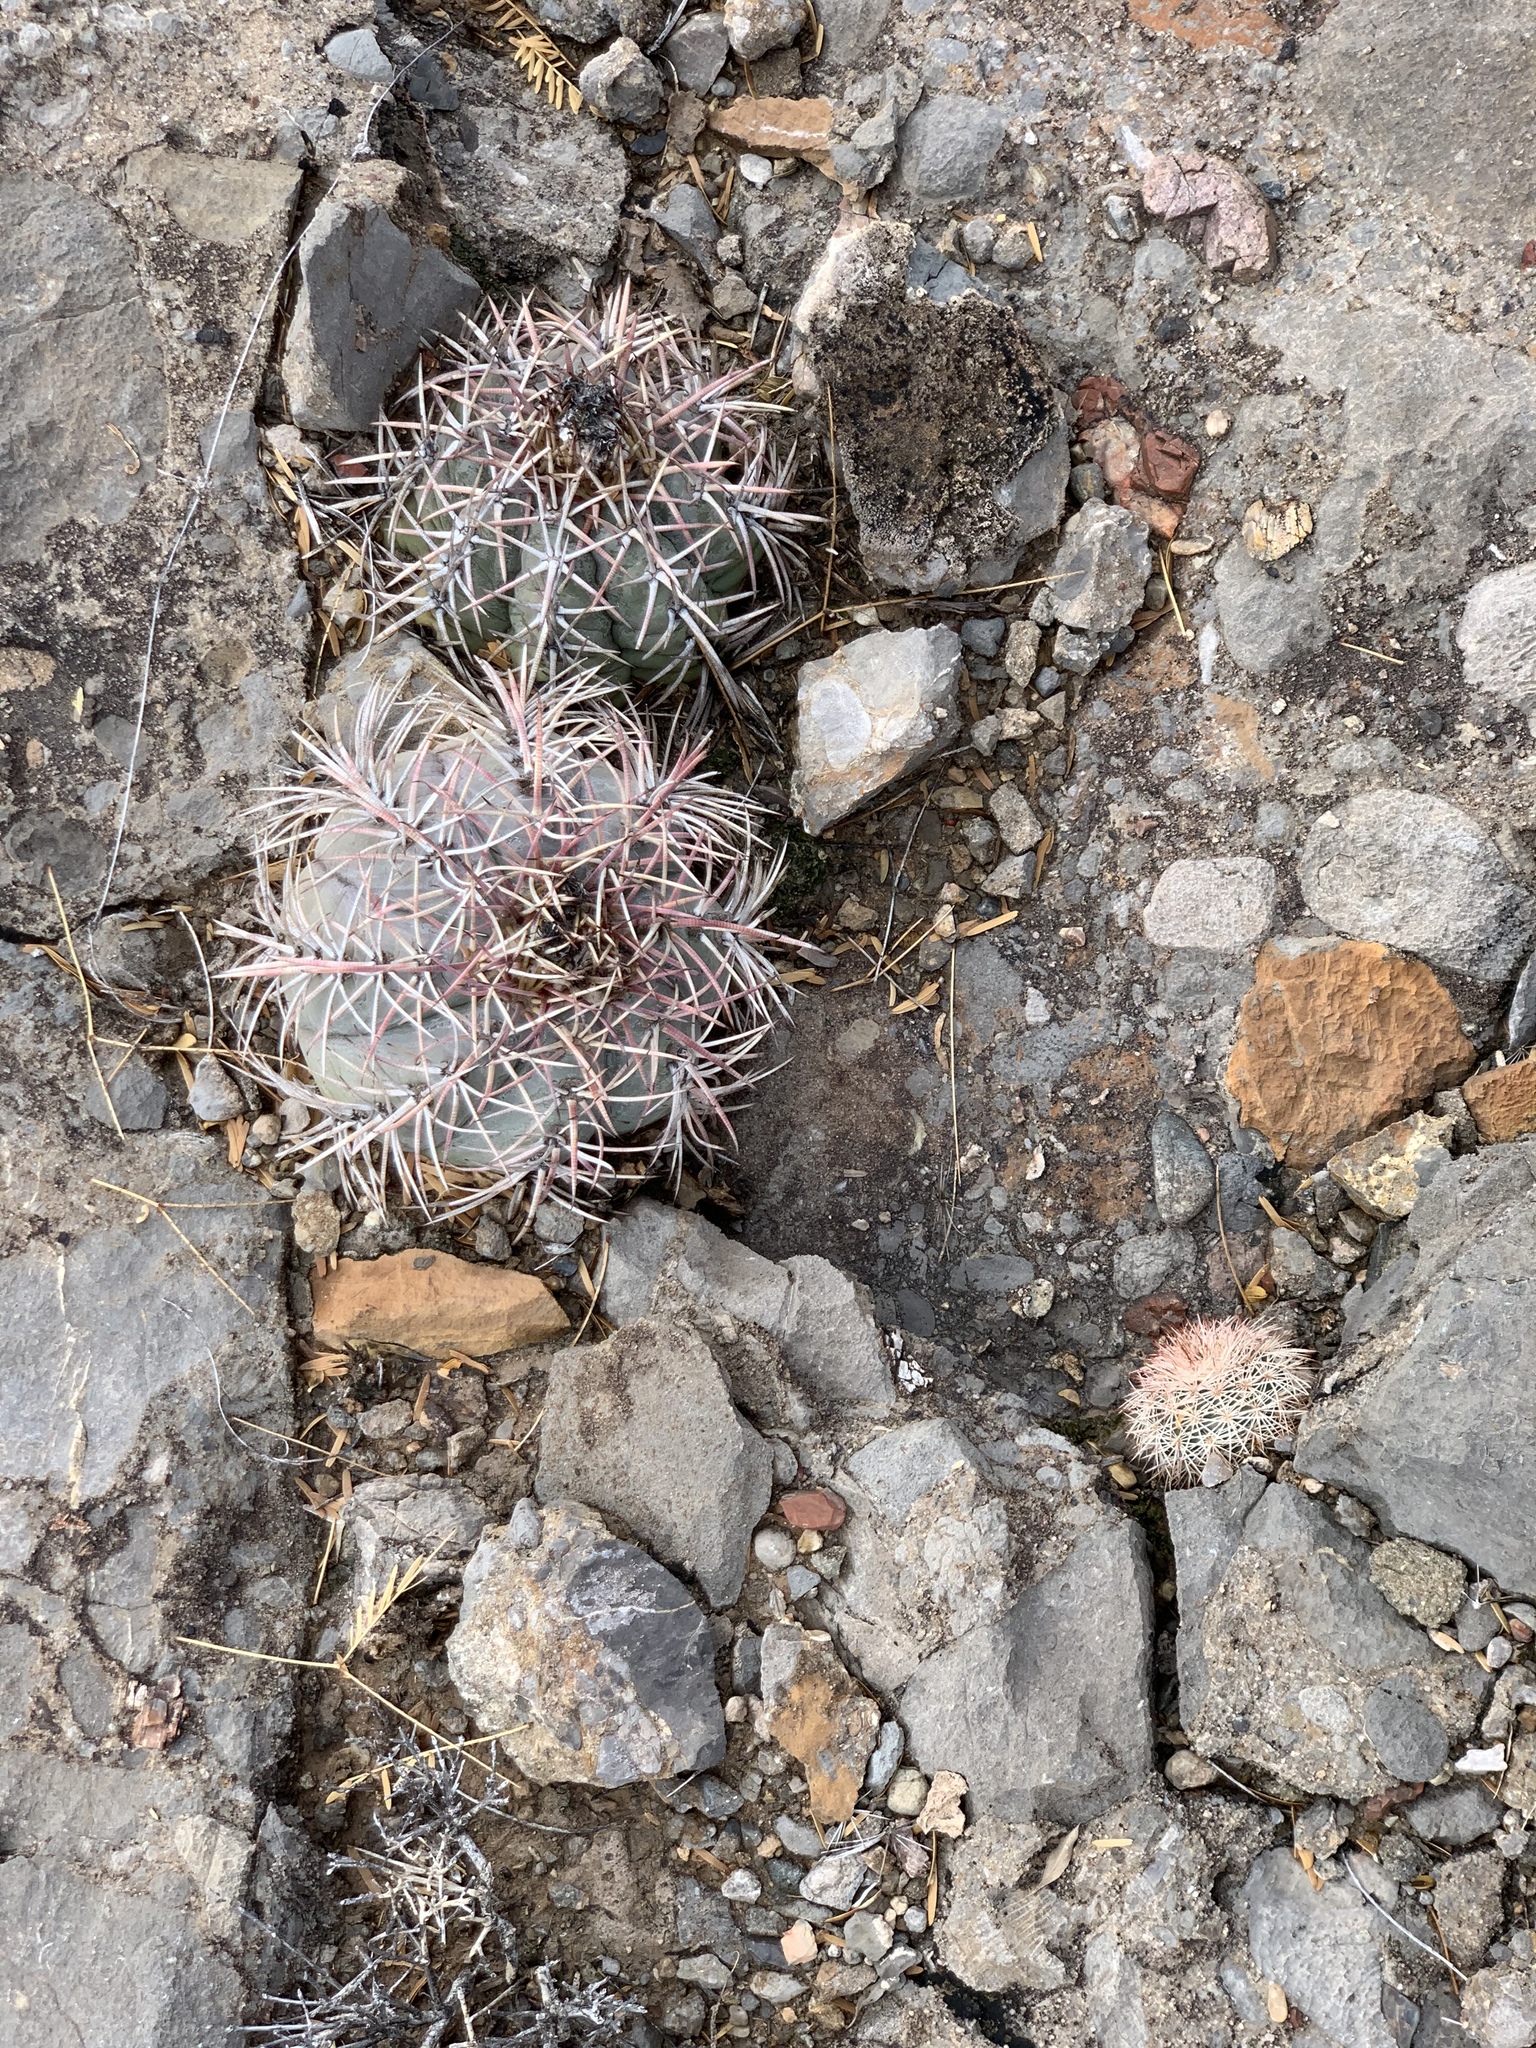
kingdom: Plantae
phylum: Tracheophyta
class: Magnoliopsida
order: Caryophyllales
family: Cactaceae
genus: Echinocactus
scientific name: Echinocactus horizonthalonius
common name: Devilshead
